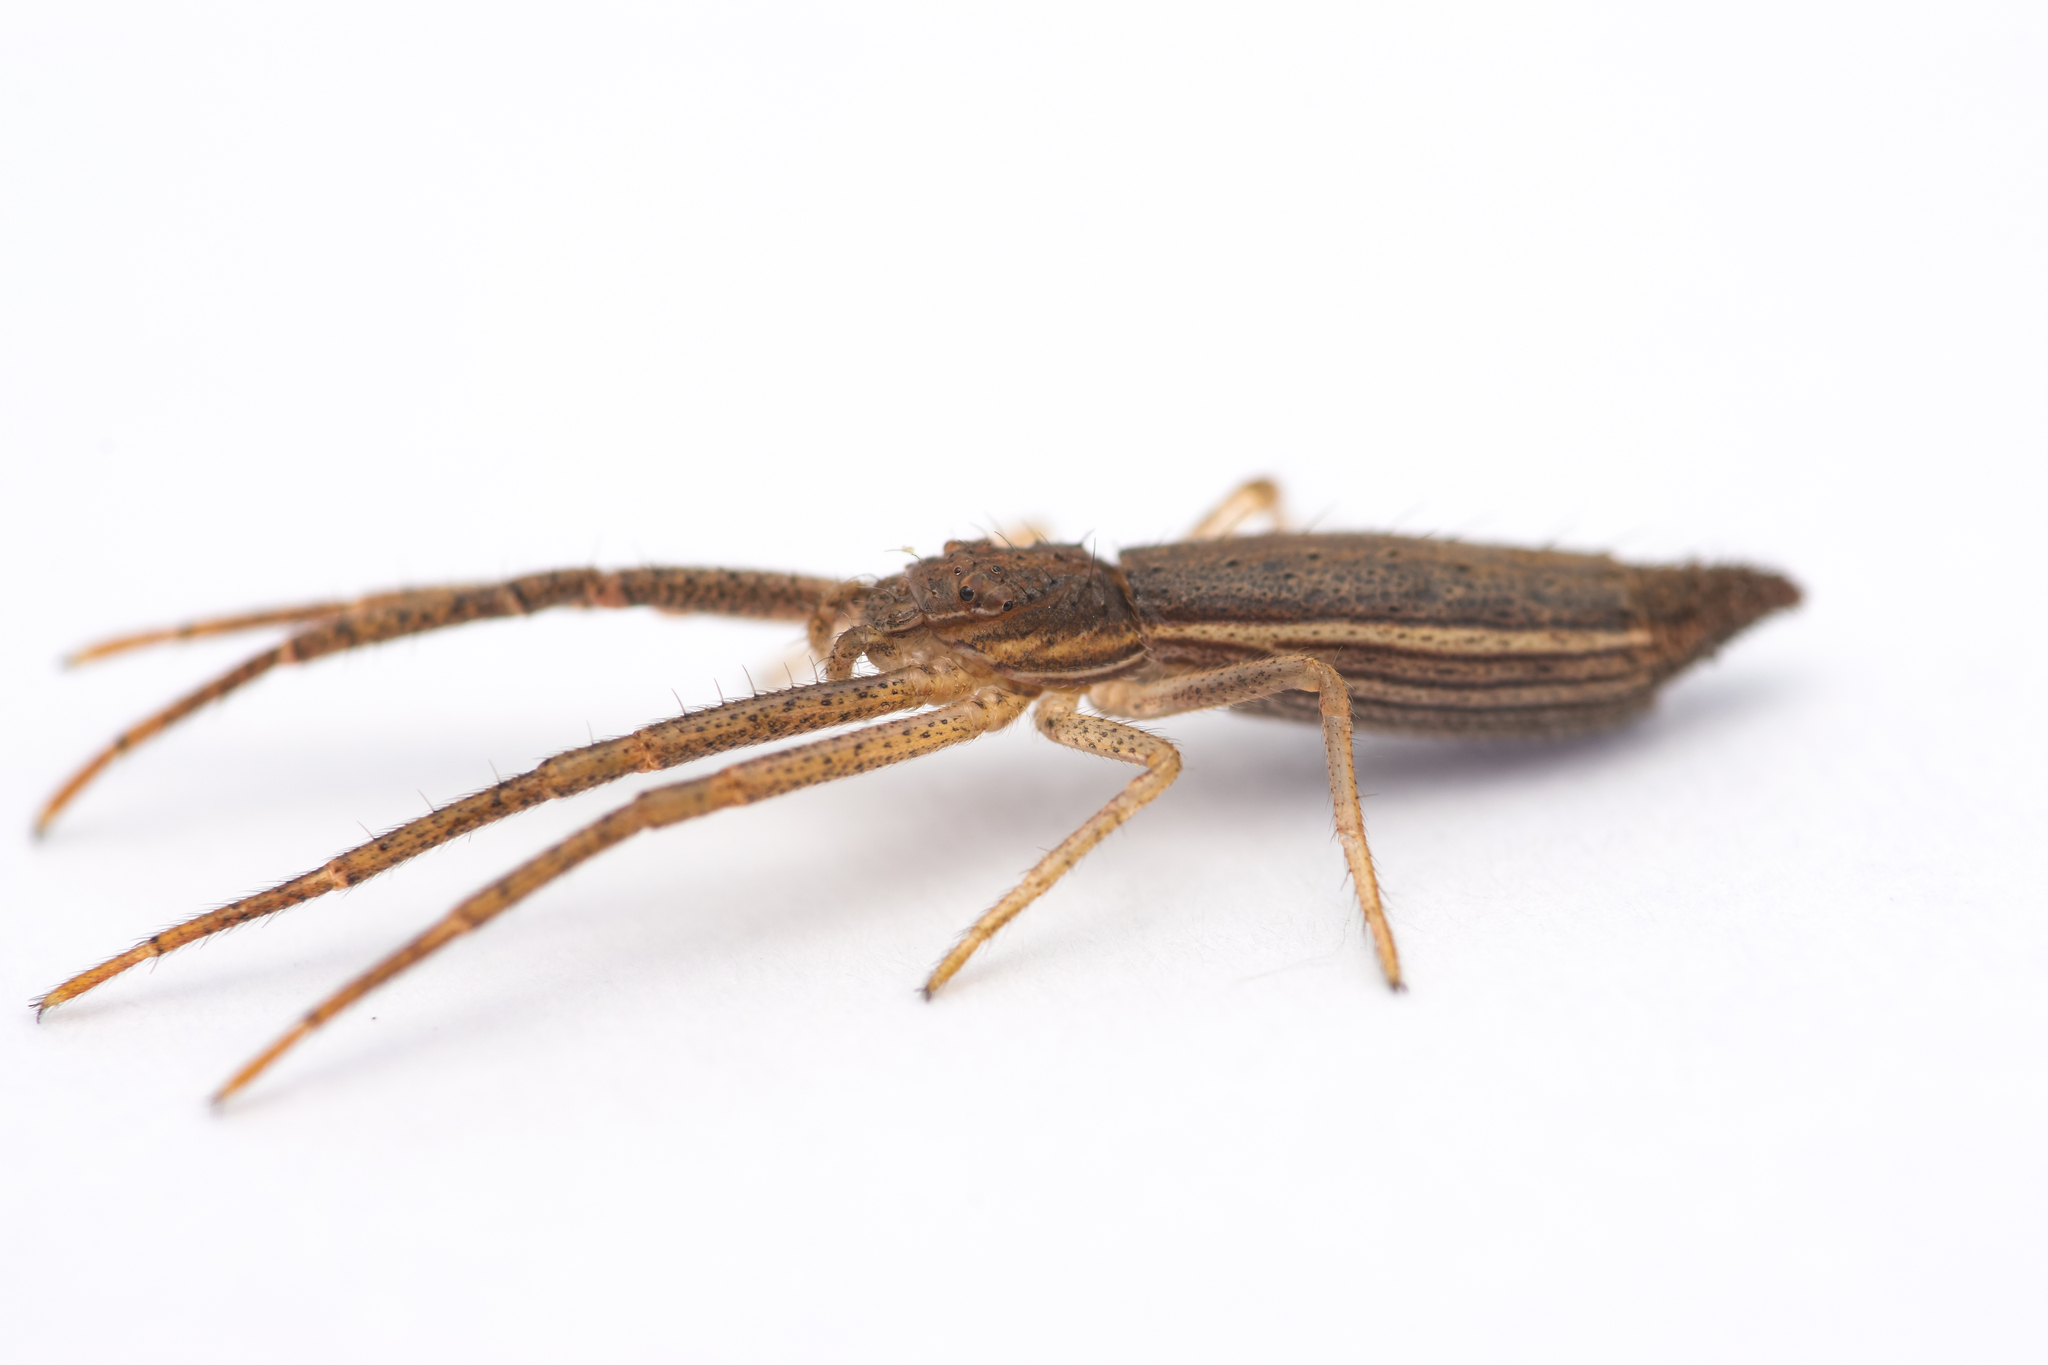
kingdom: Animalia
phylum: Arthropoda
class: Arachnida
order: Araneae
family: Thomisidae
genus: Monaeses
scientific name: Monaeses paradoxus
